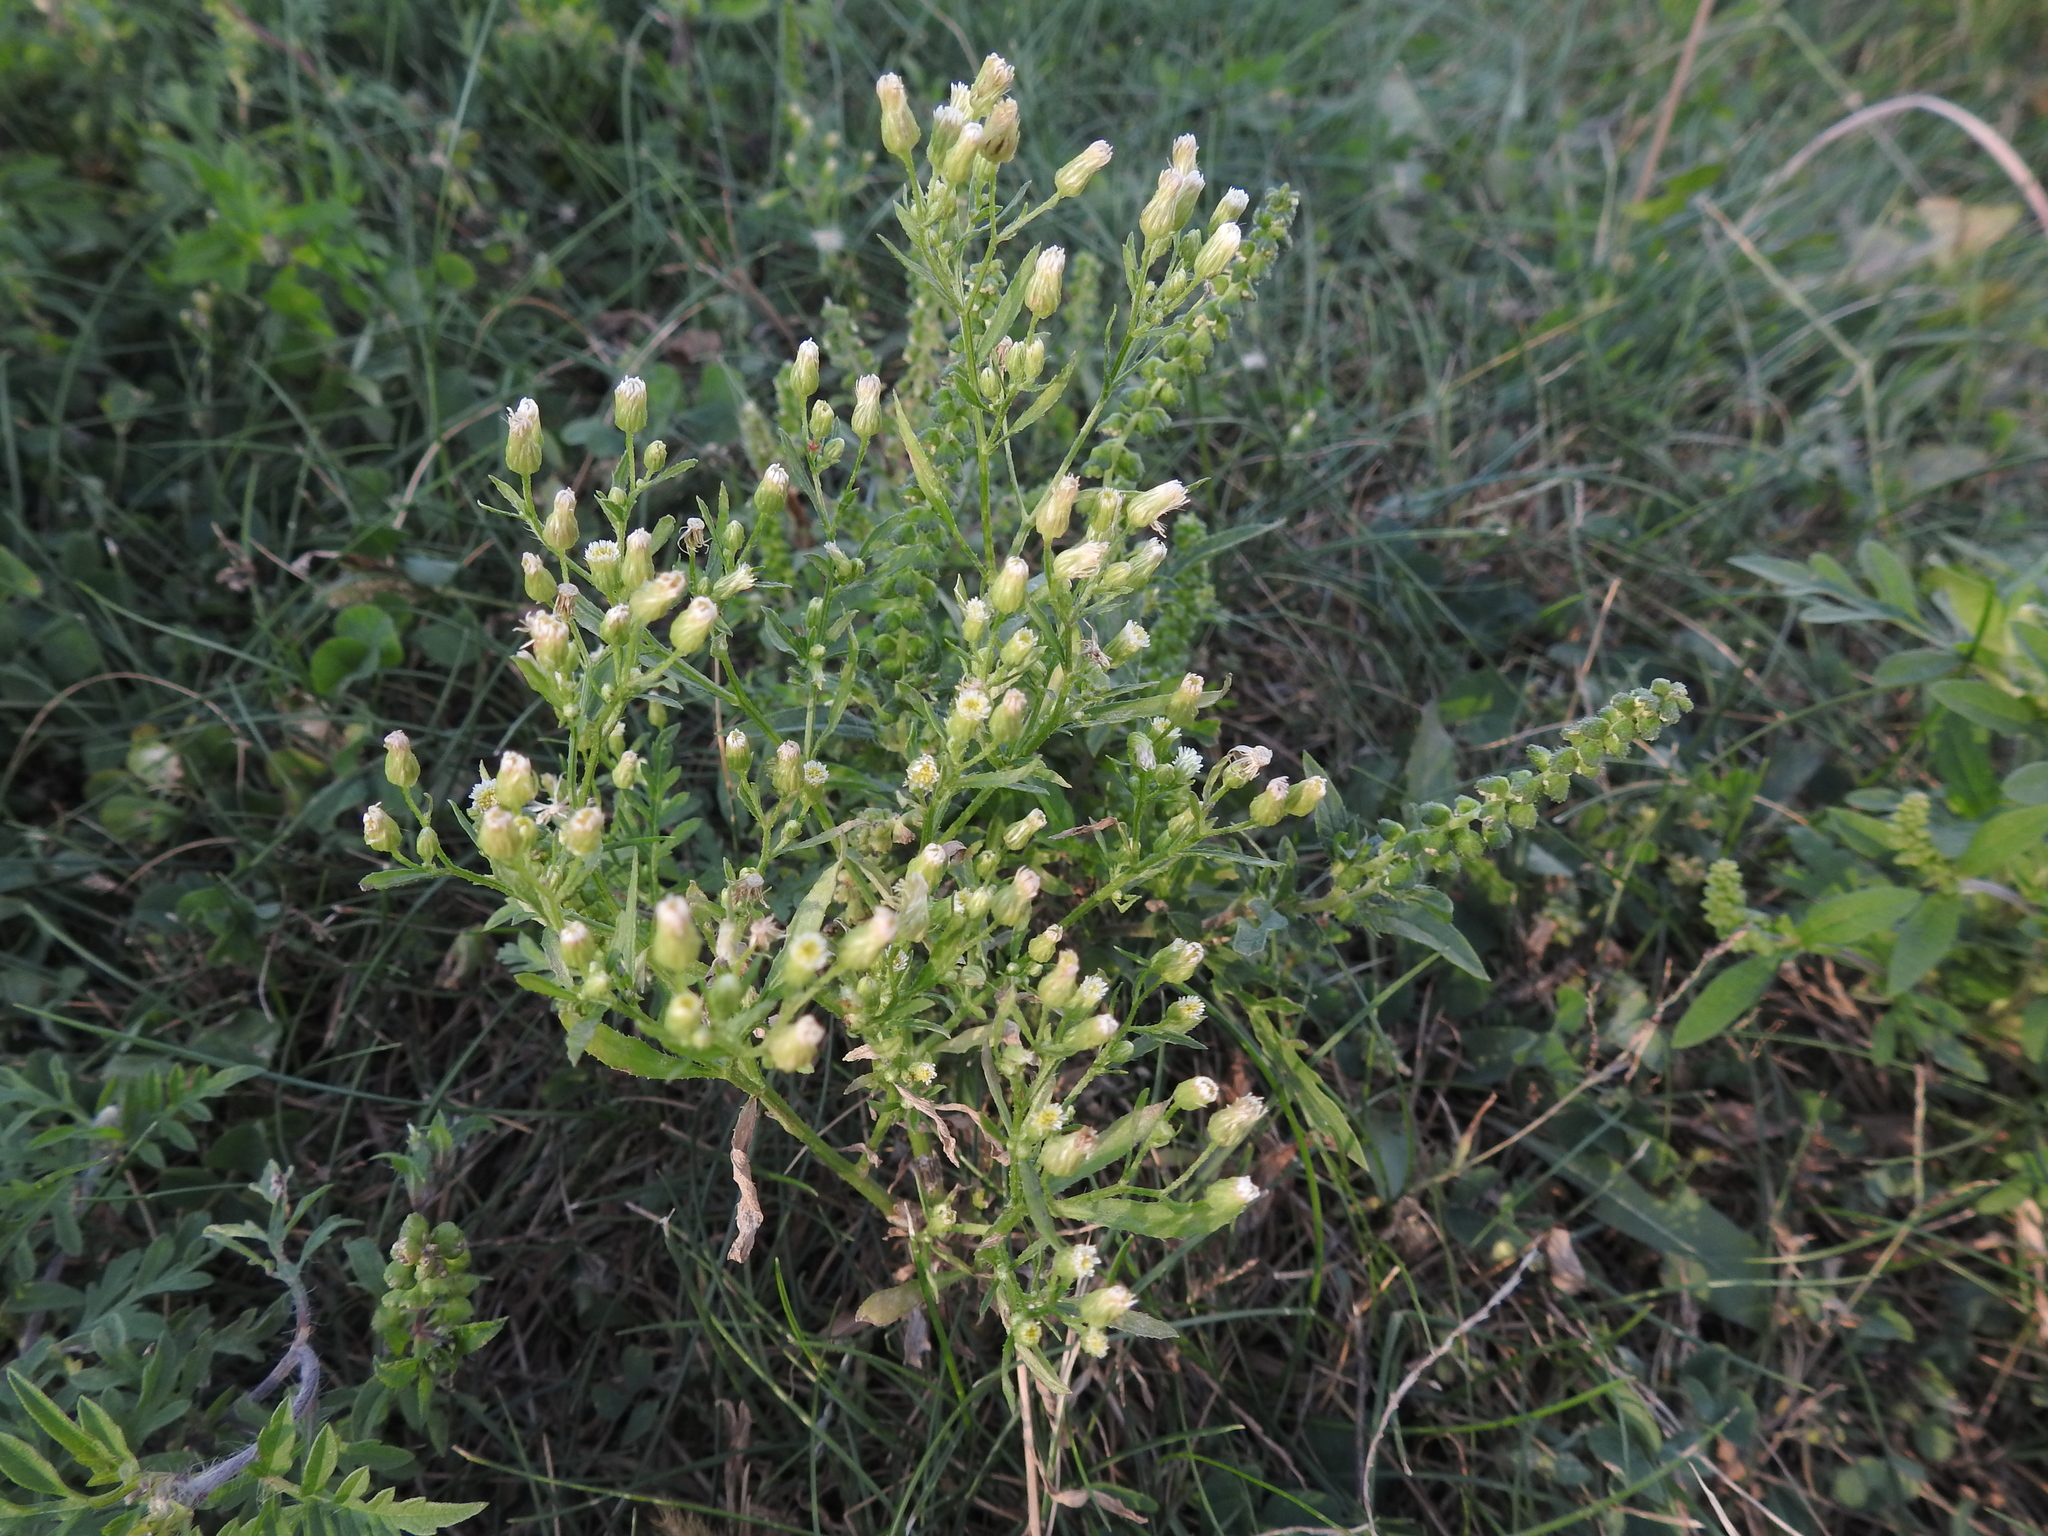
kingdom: Plantae
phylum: Tracheophyta
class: Magnoliopsida
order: Asterales
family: Asteraceae
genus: Erigeron
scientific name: Erigeron canadensis
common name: Canadian fleabane
